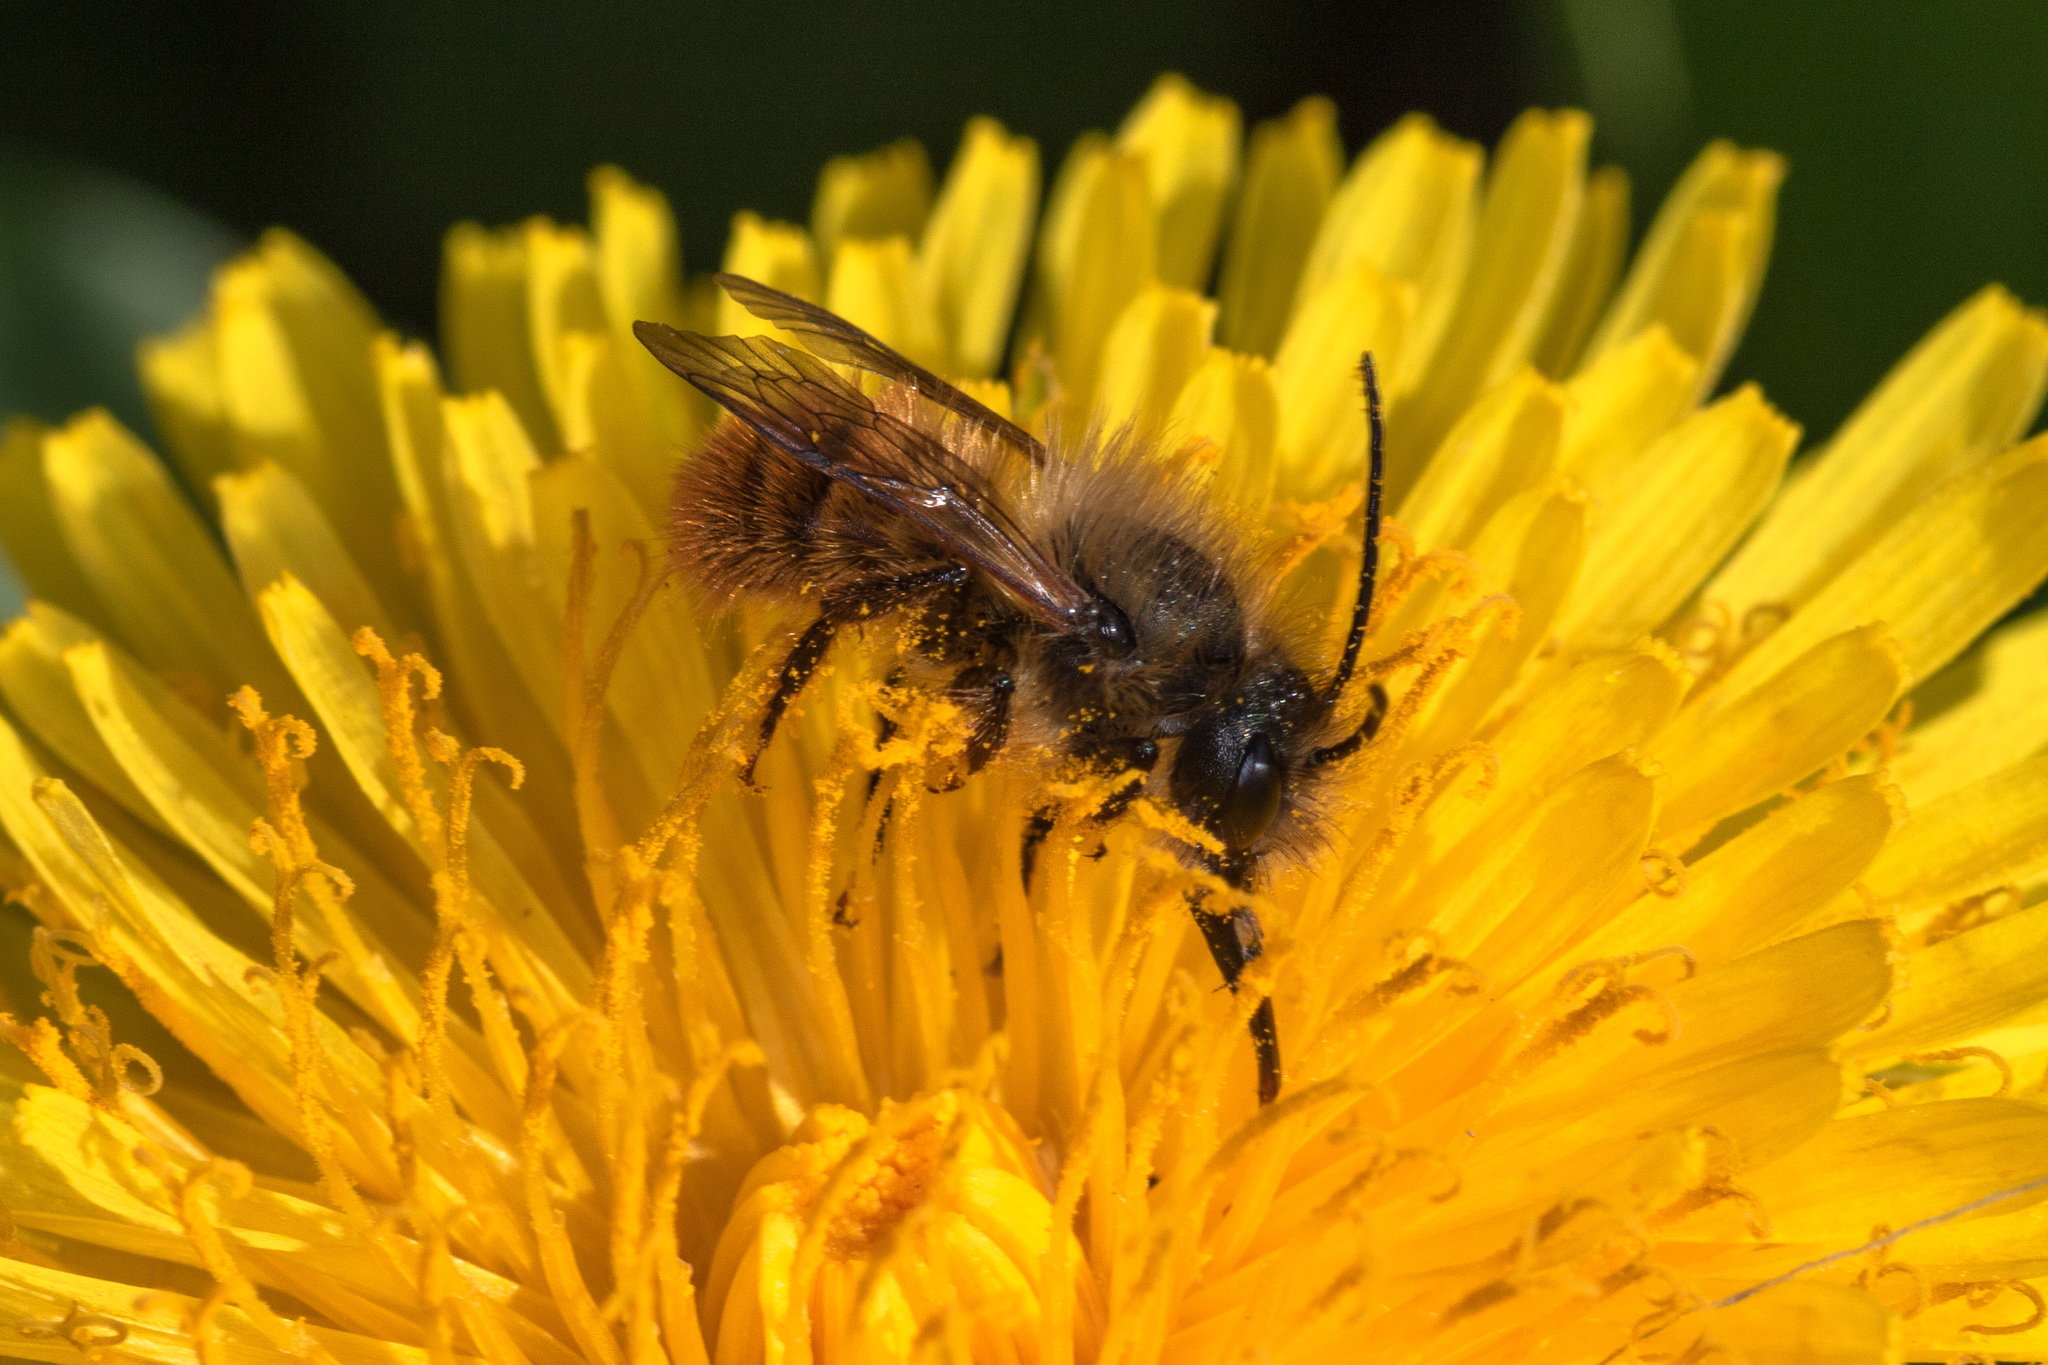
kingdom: Animalia
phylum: Arthropoda
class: Insecta
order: Hymenoptera
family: Megachilidae
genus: Osmia
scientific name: Osmia bicornis
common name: Red mason bee
